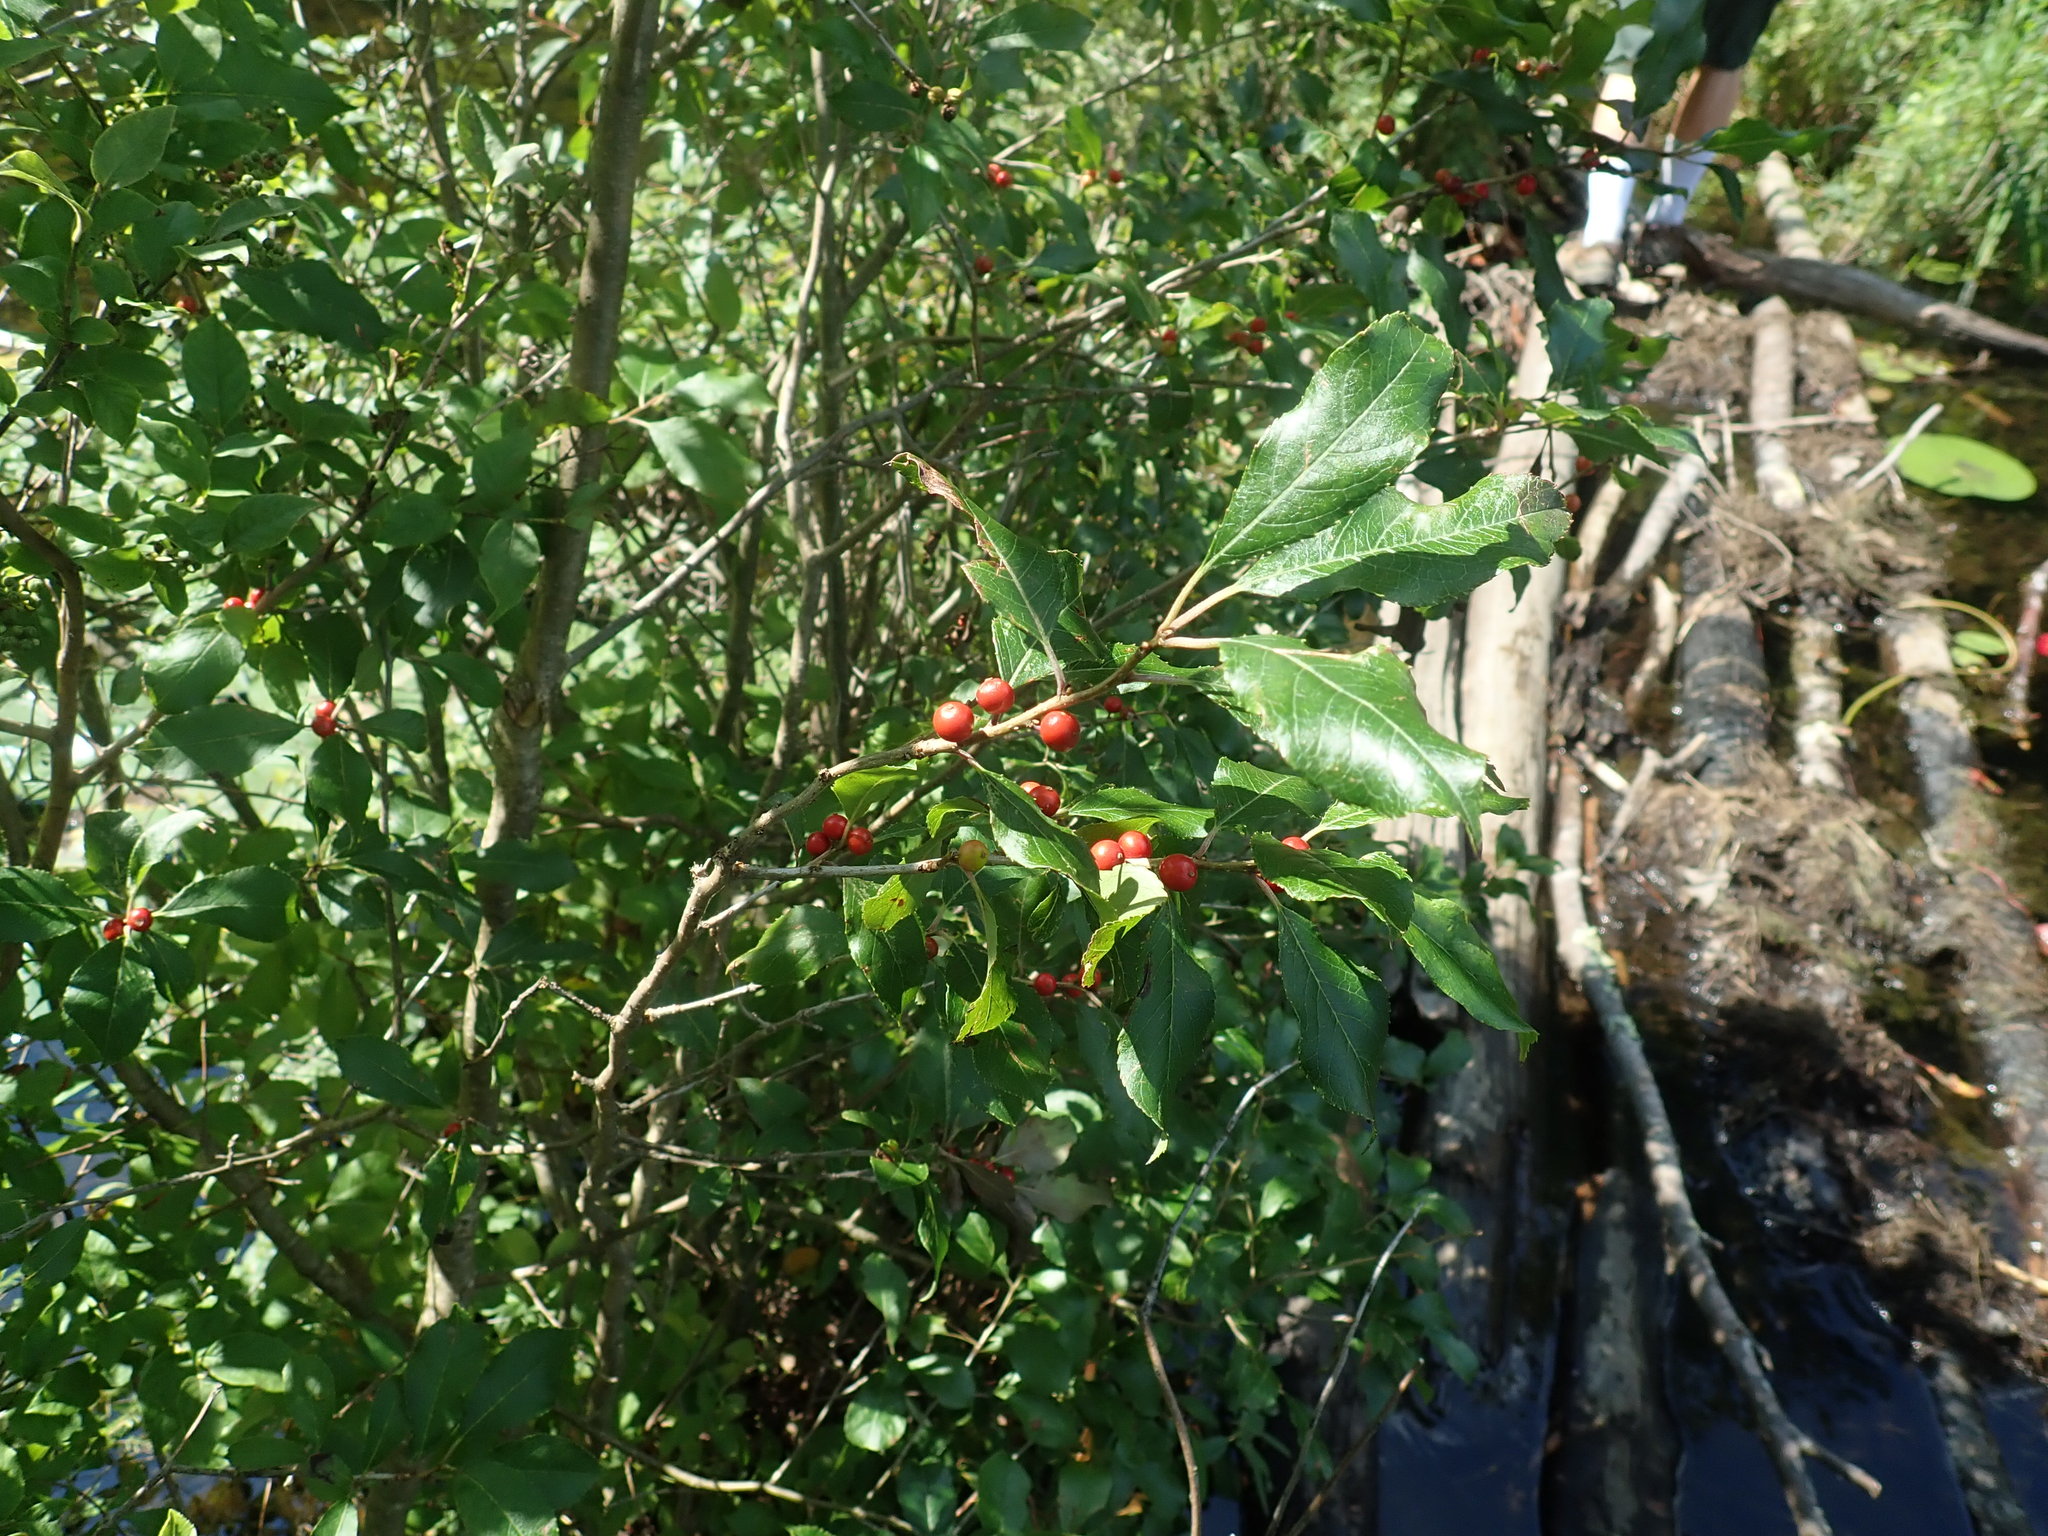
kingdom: Plantae
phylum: Tracheophyta
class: Magnoliopsida
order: Aquifoliales
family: Aquifoliaceae
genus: Ilex
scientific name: Ilex verticillata
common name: Virginia winterberry
